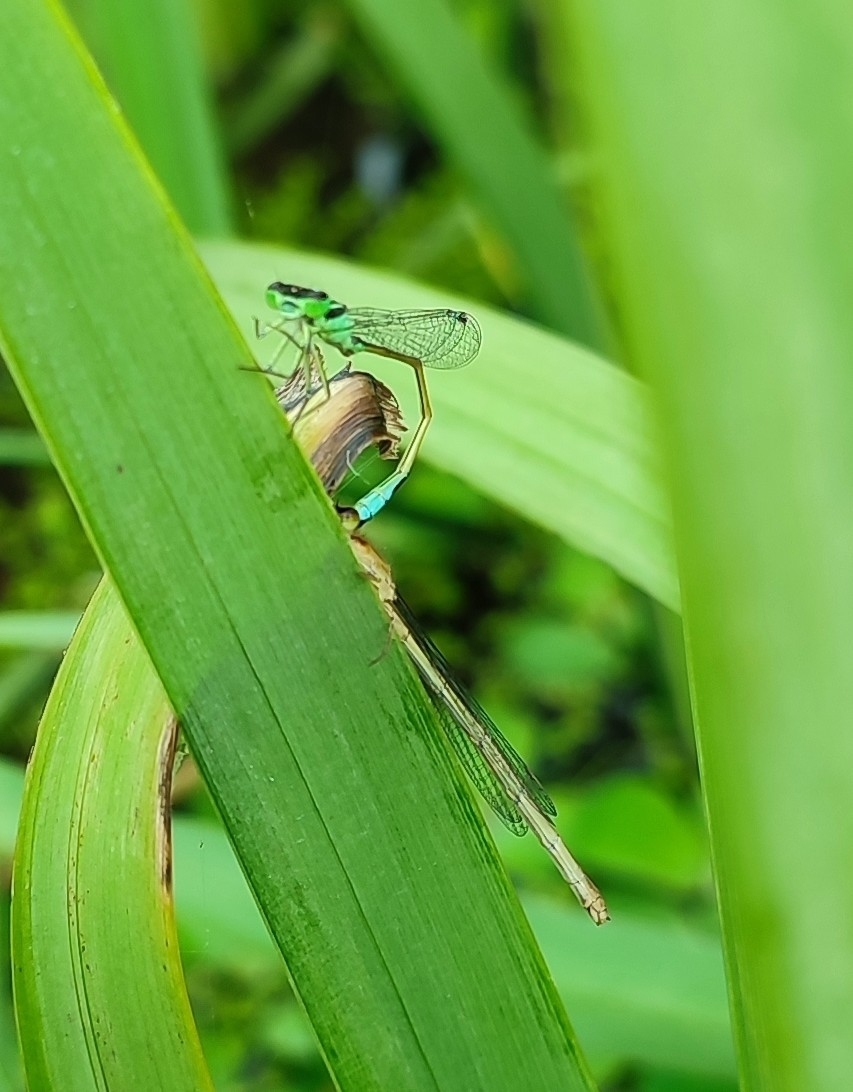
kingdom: Animalia
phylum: Arthropoda
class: Insecta
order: Odonata
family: Coenagrionidae
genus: Ischnura
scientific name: Ischnura elegans
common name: Blue-tailed damselfly
